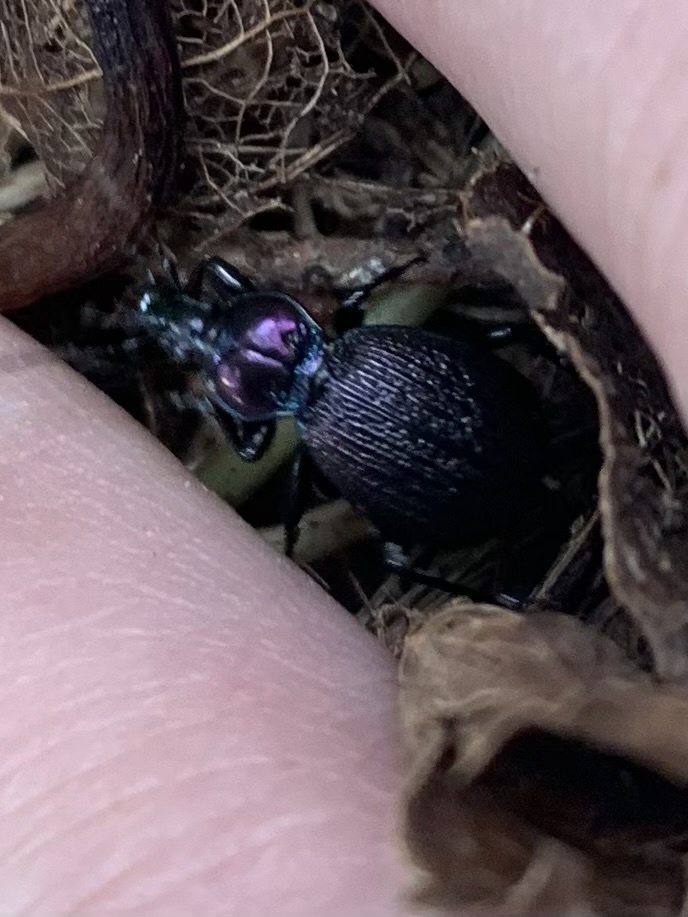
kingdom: Animalia
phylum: Arthropoda
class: Insecta
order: Coleoptera
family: Carabidae
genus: Sphaeroderus
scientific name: Sphaeroderus nitidicollis
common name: Polished snail-eating beetle
